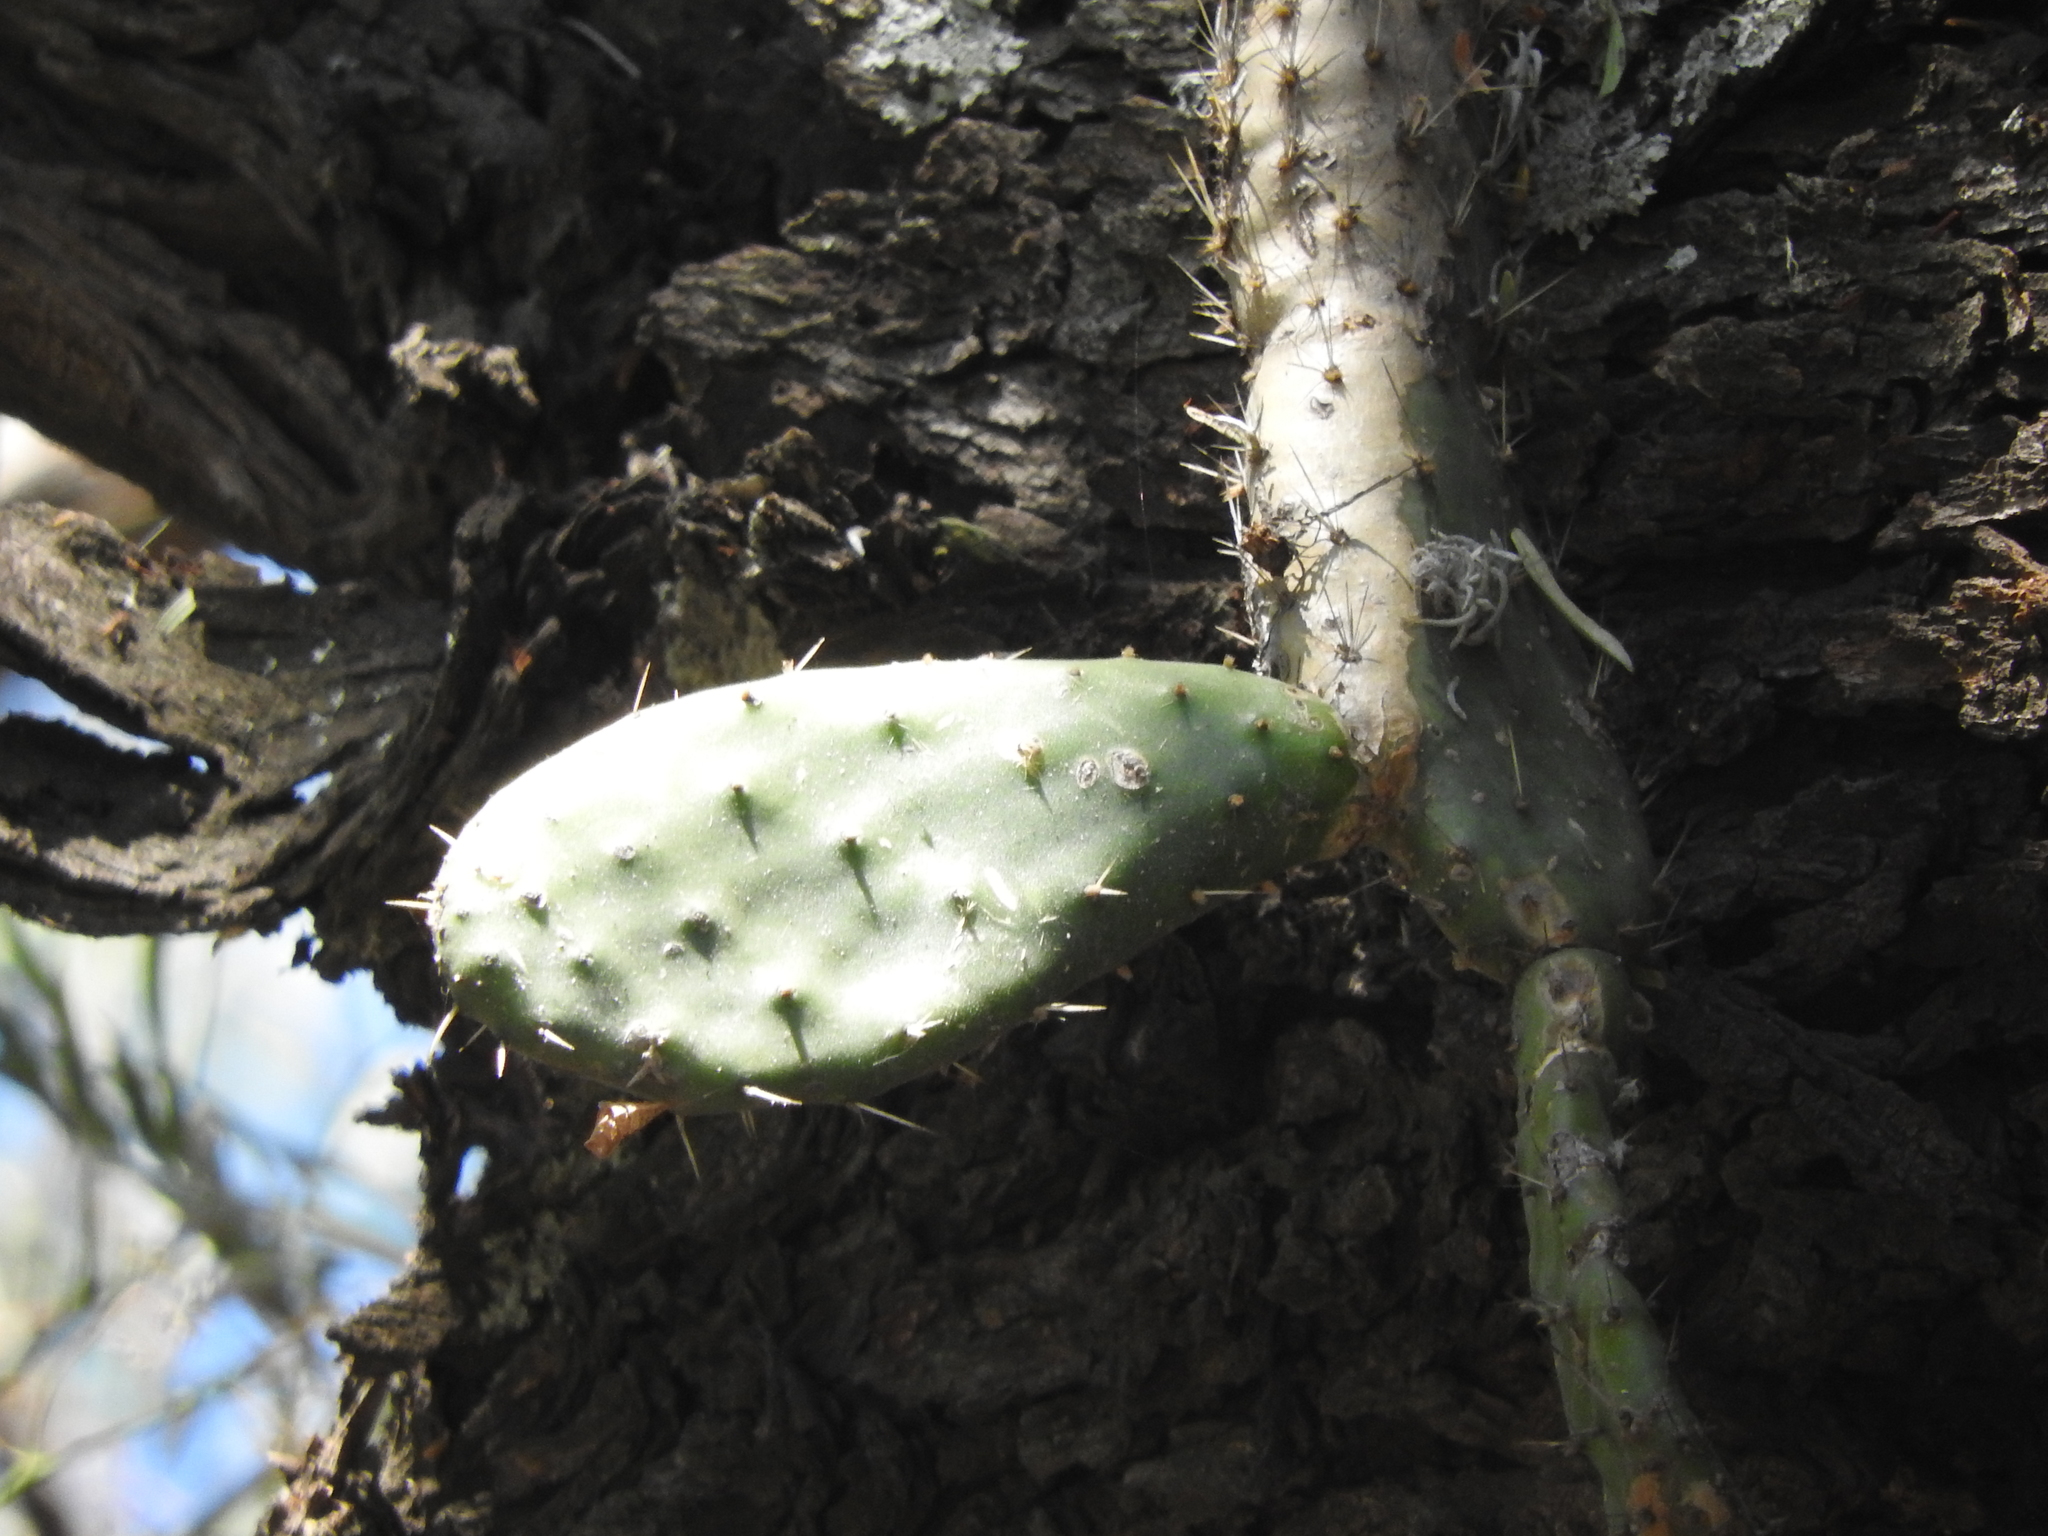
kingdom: Plantae
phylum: Tracheophyta
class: Magnoliopsida
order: Caryophyllales
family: Cactaceae
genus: Opuntia
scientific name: Opuntia tomentosa
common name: Woollyjoint pricklypear
